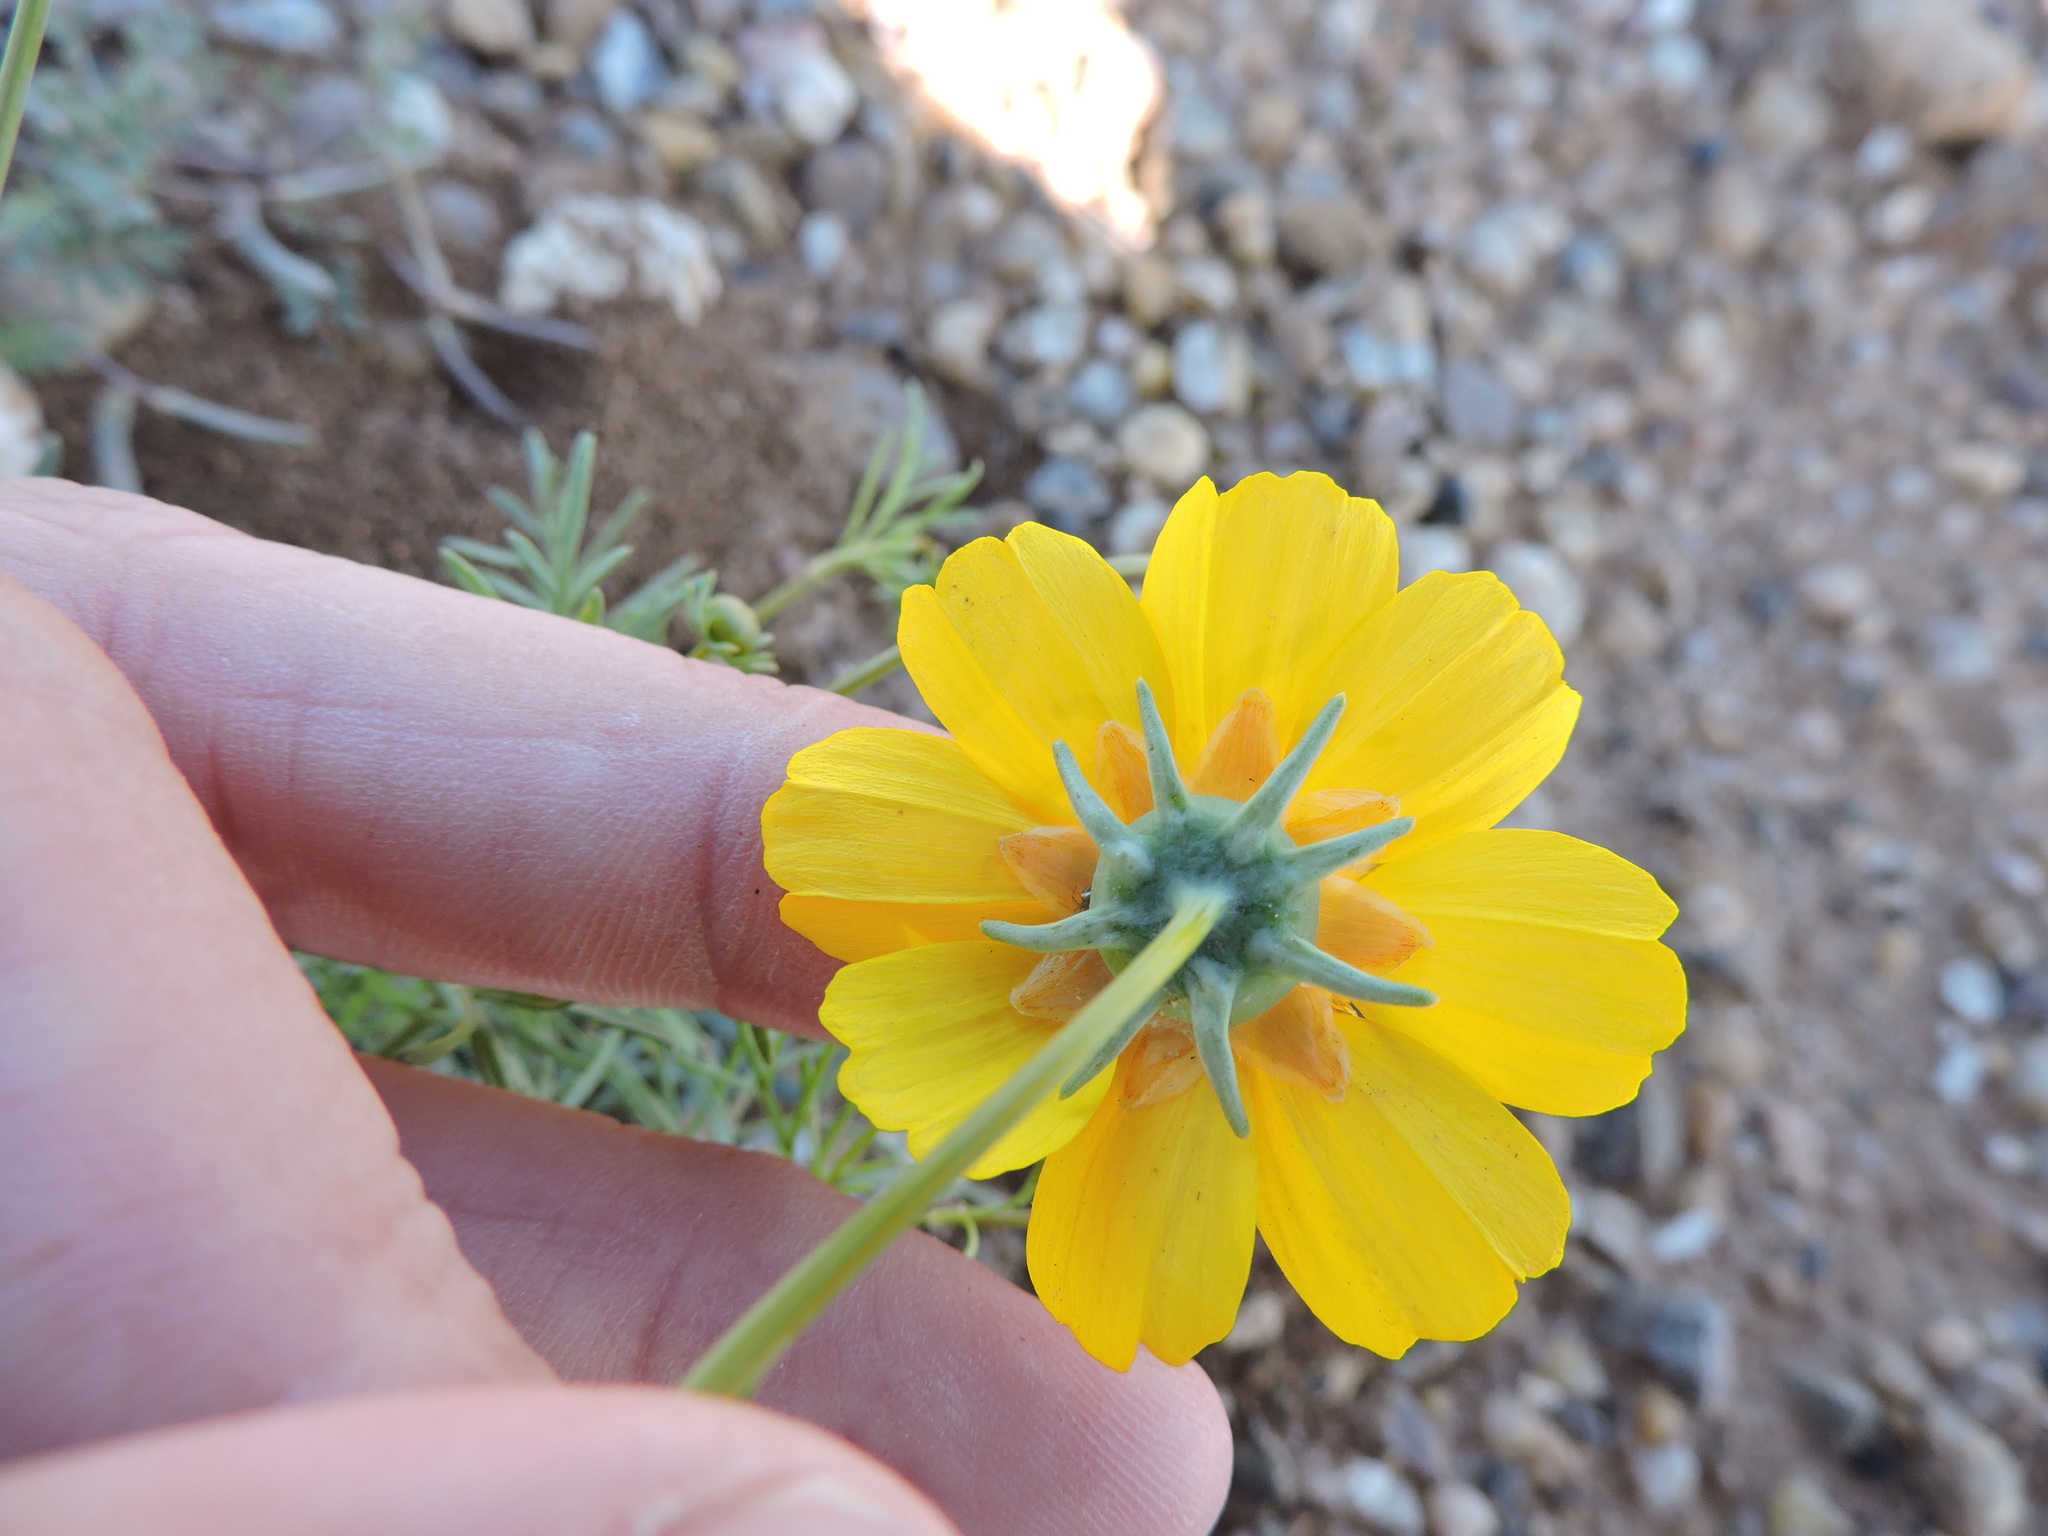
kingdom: Plantae
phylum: Tracheophyta
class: Magnoliopsida
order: Asterales
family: Asteraceae
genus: Thelesperma
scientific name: Thelesperma filifolium
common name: Stiff greenthread
